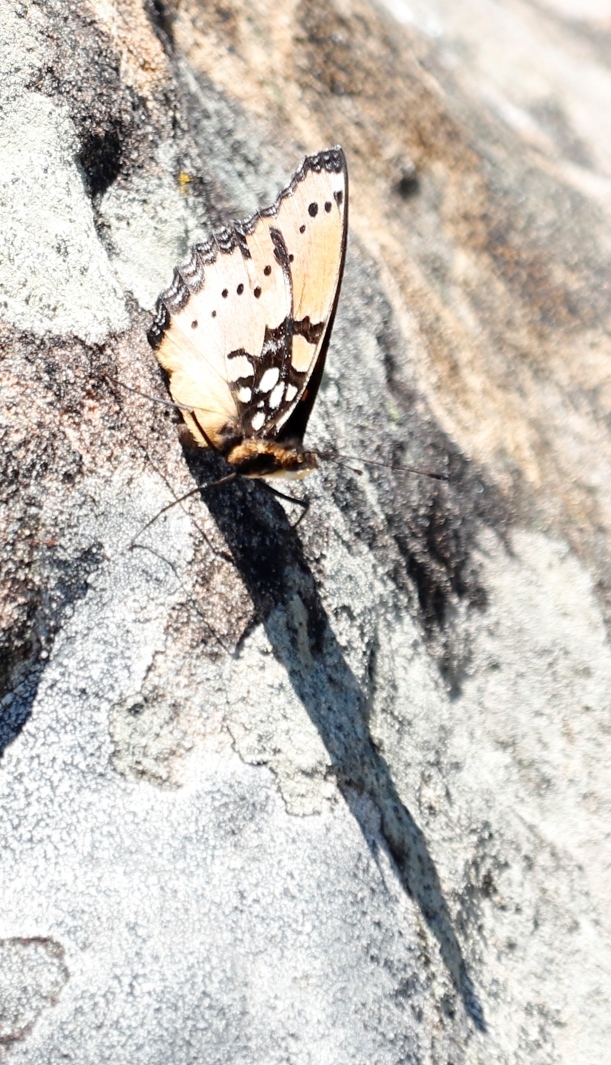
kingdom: Animalia
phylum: Arthropoda
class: Insecta
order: Lepidoptera
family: Nymphalidae
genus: Precis
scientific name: Precis octavia
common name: Gaudy commodore
